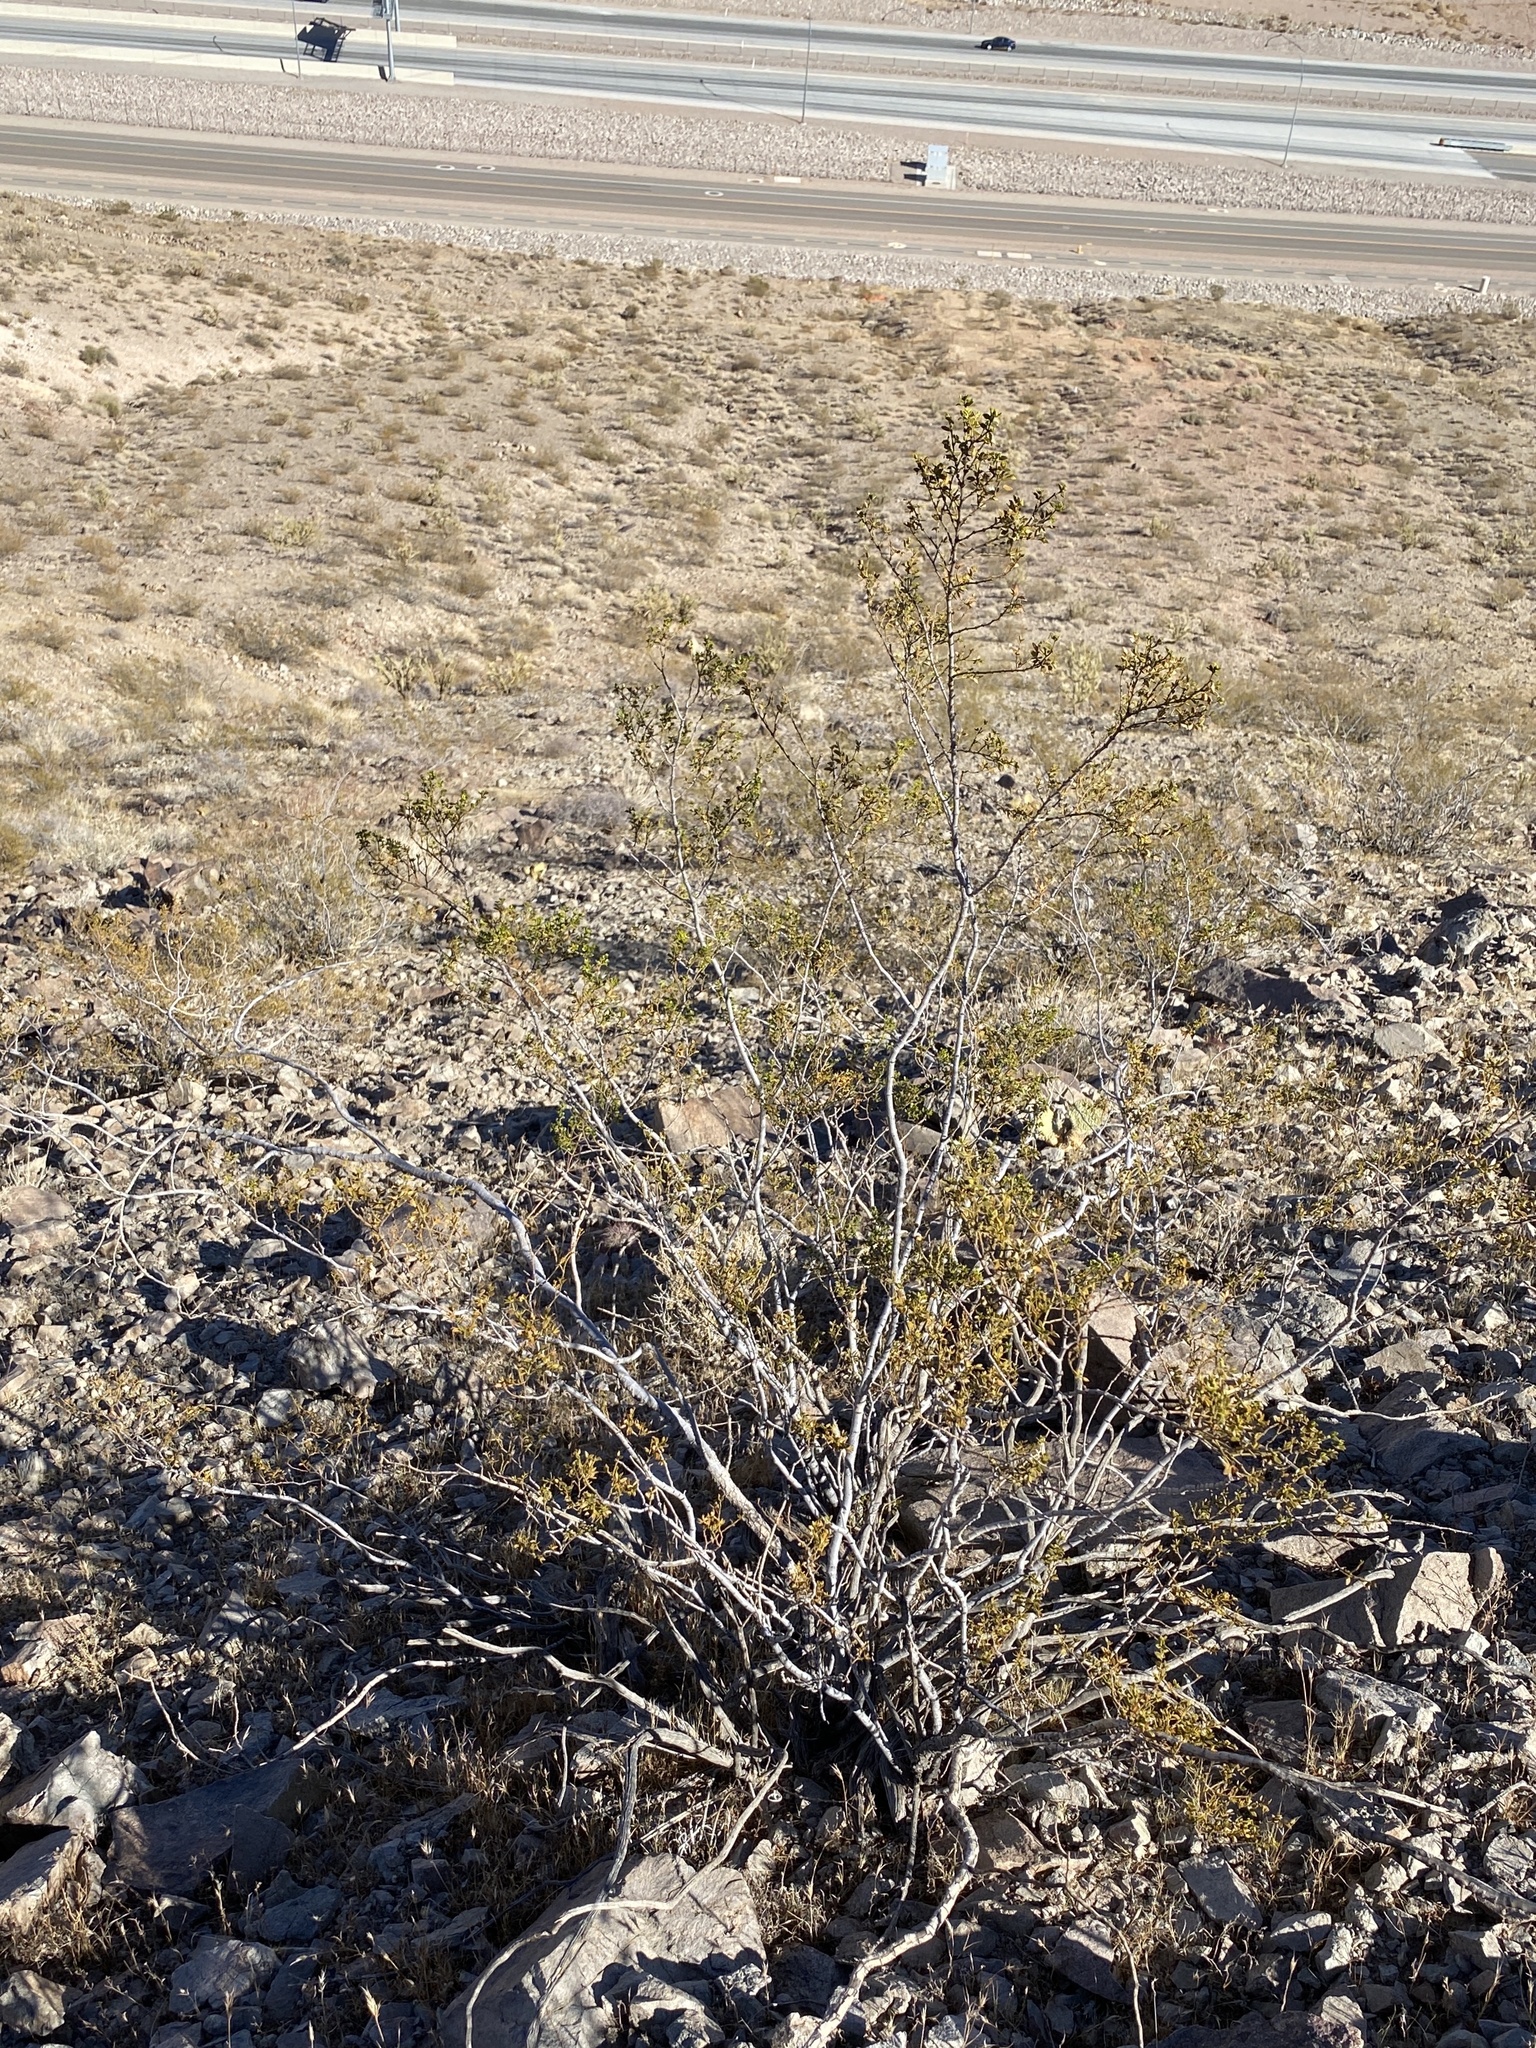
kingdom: Plantae
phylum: Tracheophyta
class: Magnoliopsida
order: Zygophyllales
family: Zygophyllaceae
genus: Larrea
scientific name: Larrea tridentata
